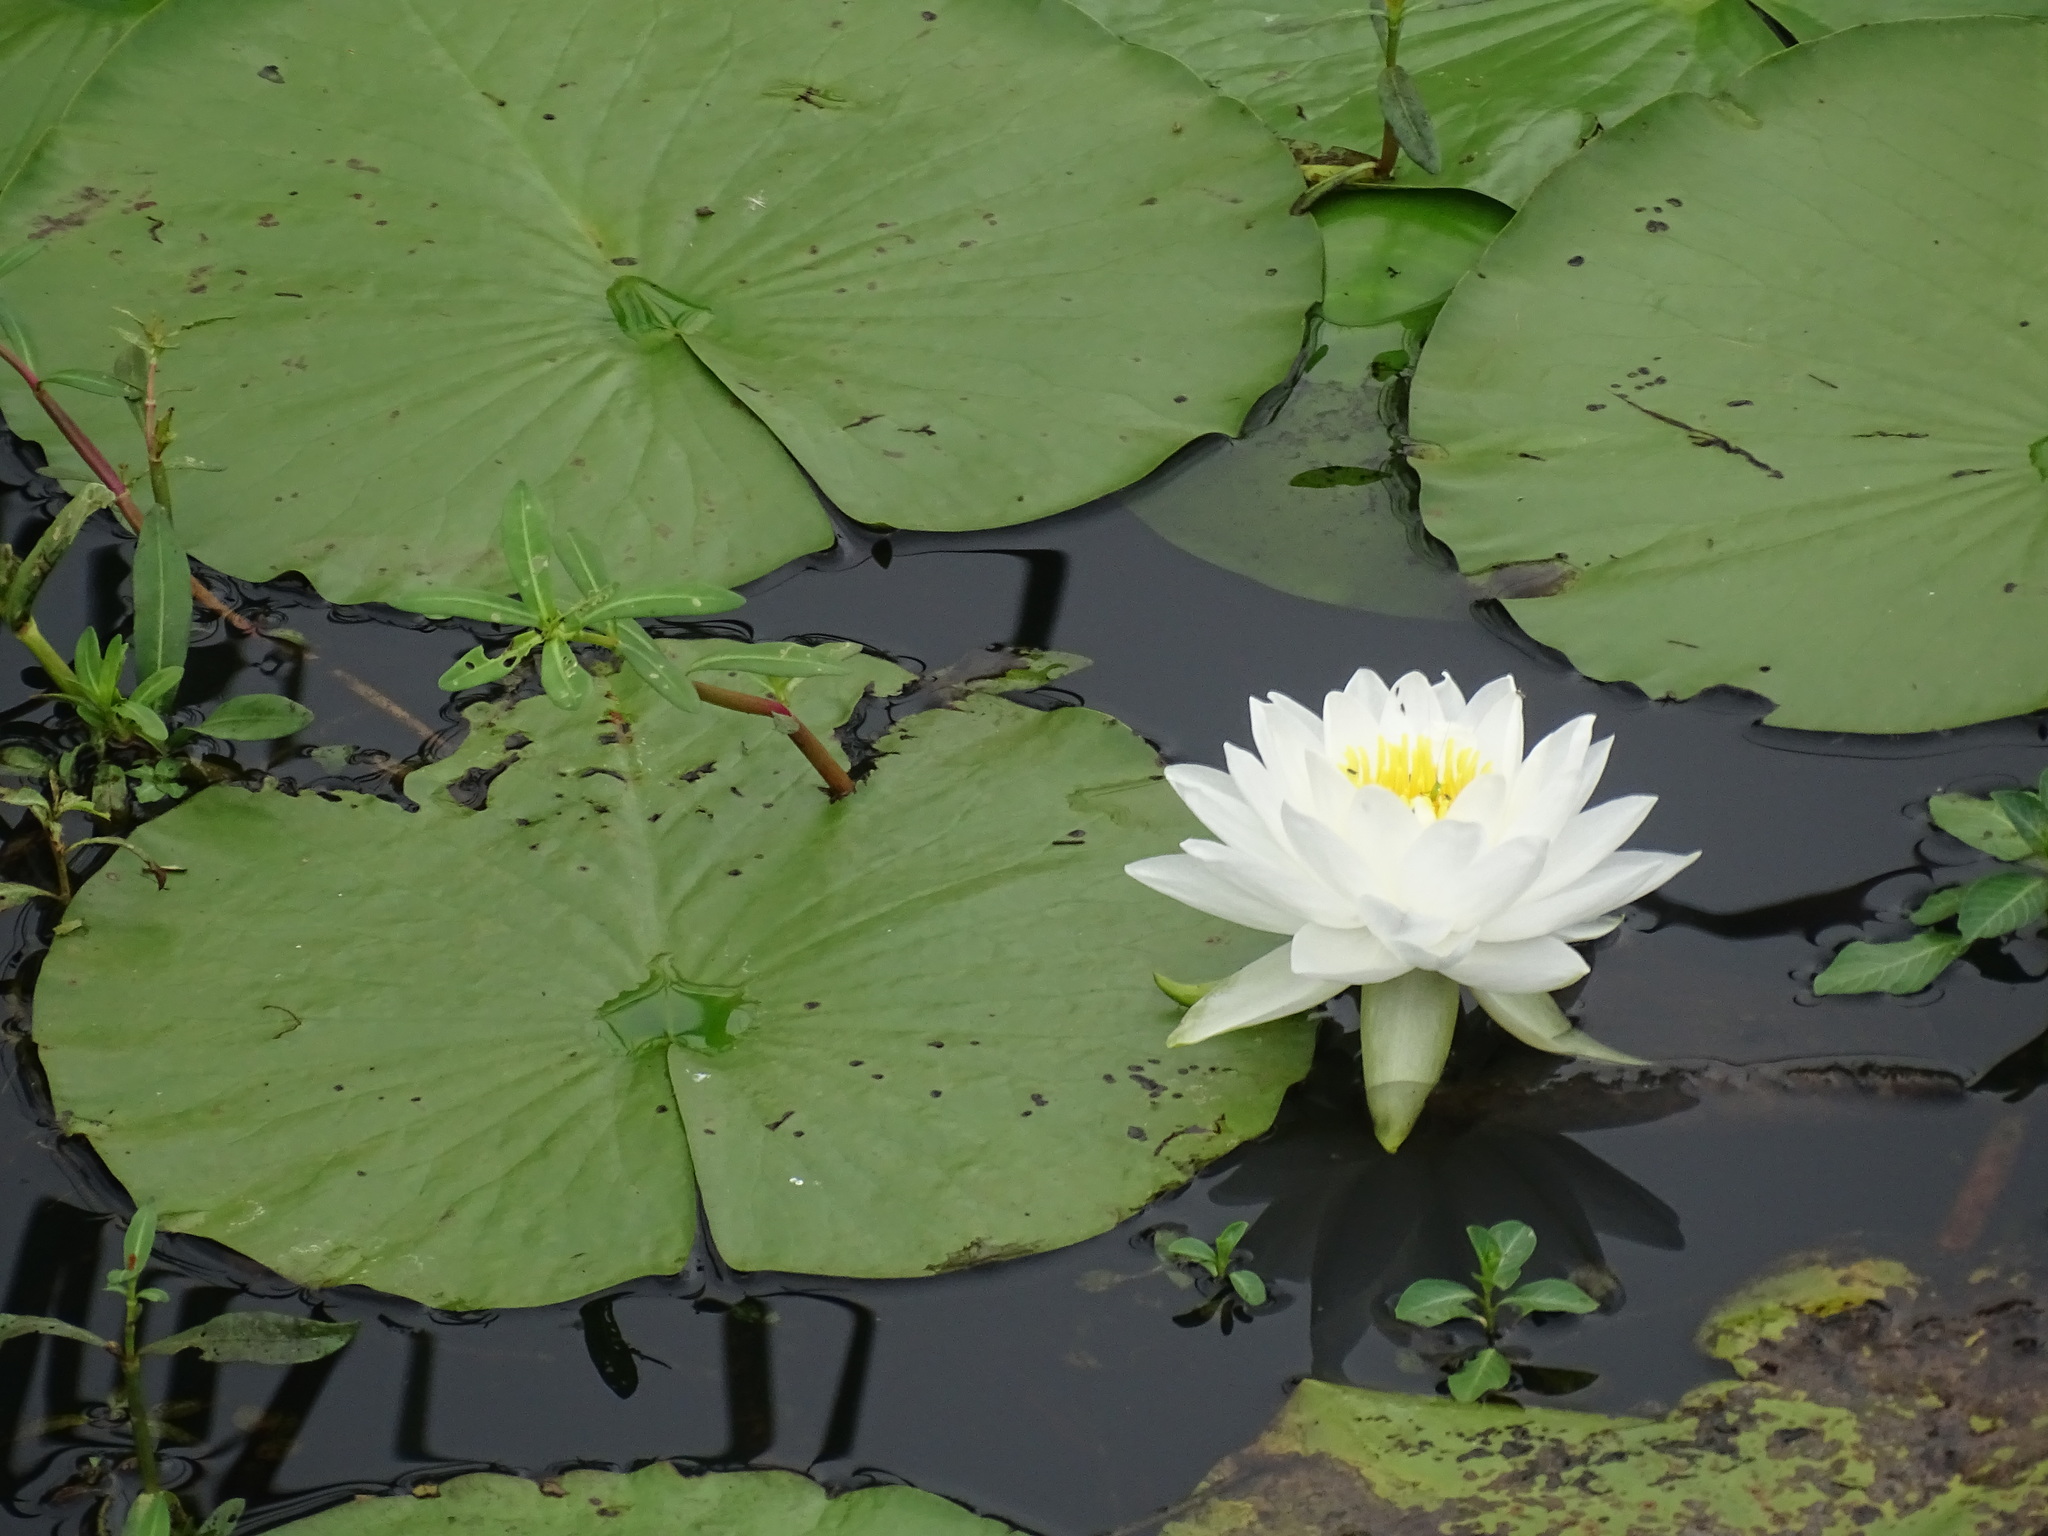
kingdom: Plantae
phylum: Tracheophyta
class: Magnoliopsida
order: Nymphaeales
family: Nymphaeaceae
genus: Nymphaea
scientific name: Nymphaea odorata
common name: Fragrant water-lily
